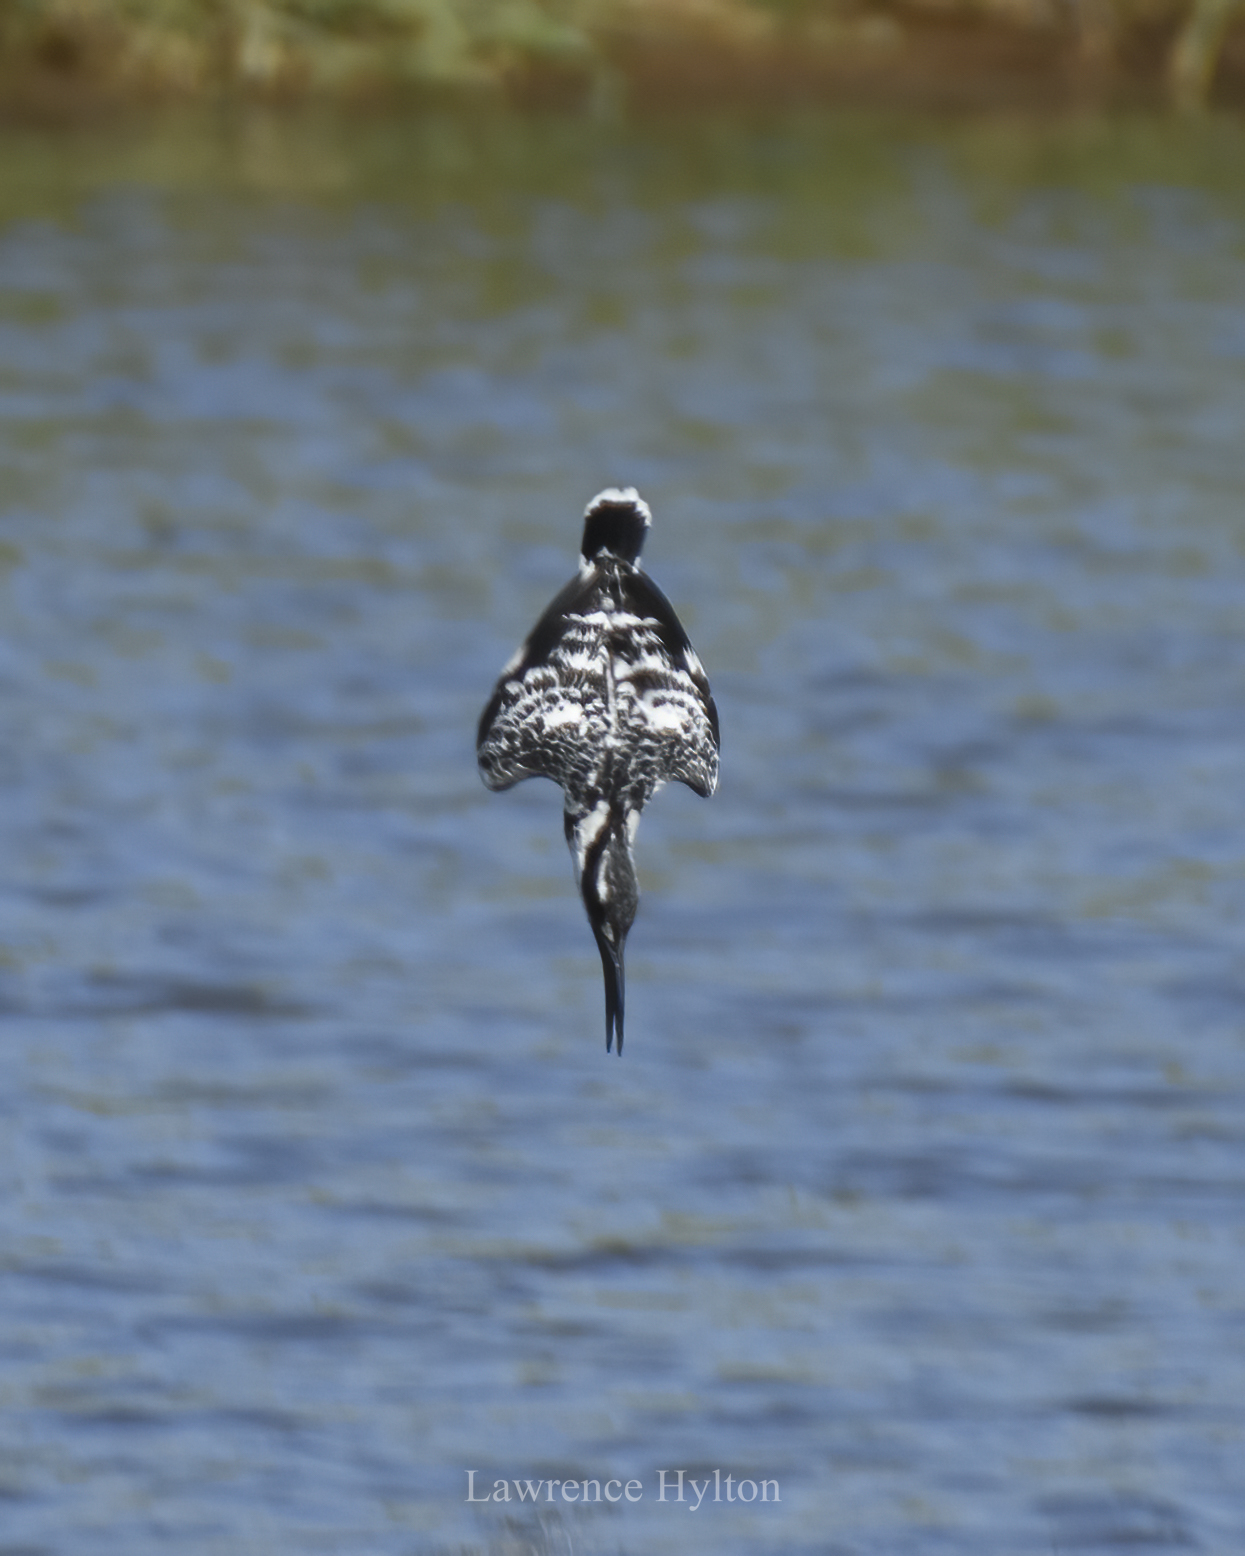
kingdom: Animalia
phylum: Chordata
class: Aves
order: Coraciiformes
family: Alcedinidae
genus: Ceryle
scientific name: Ceryle rudis
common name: Pied kingfisher
